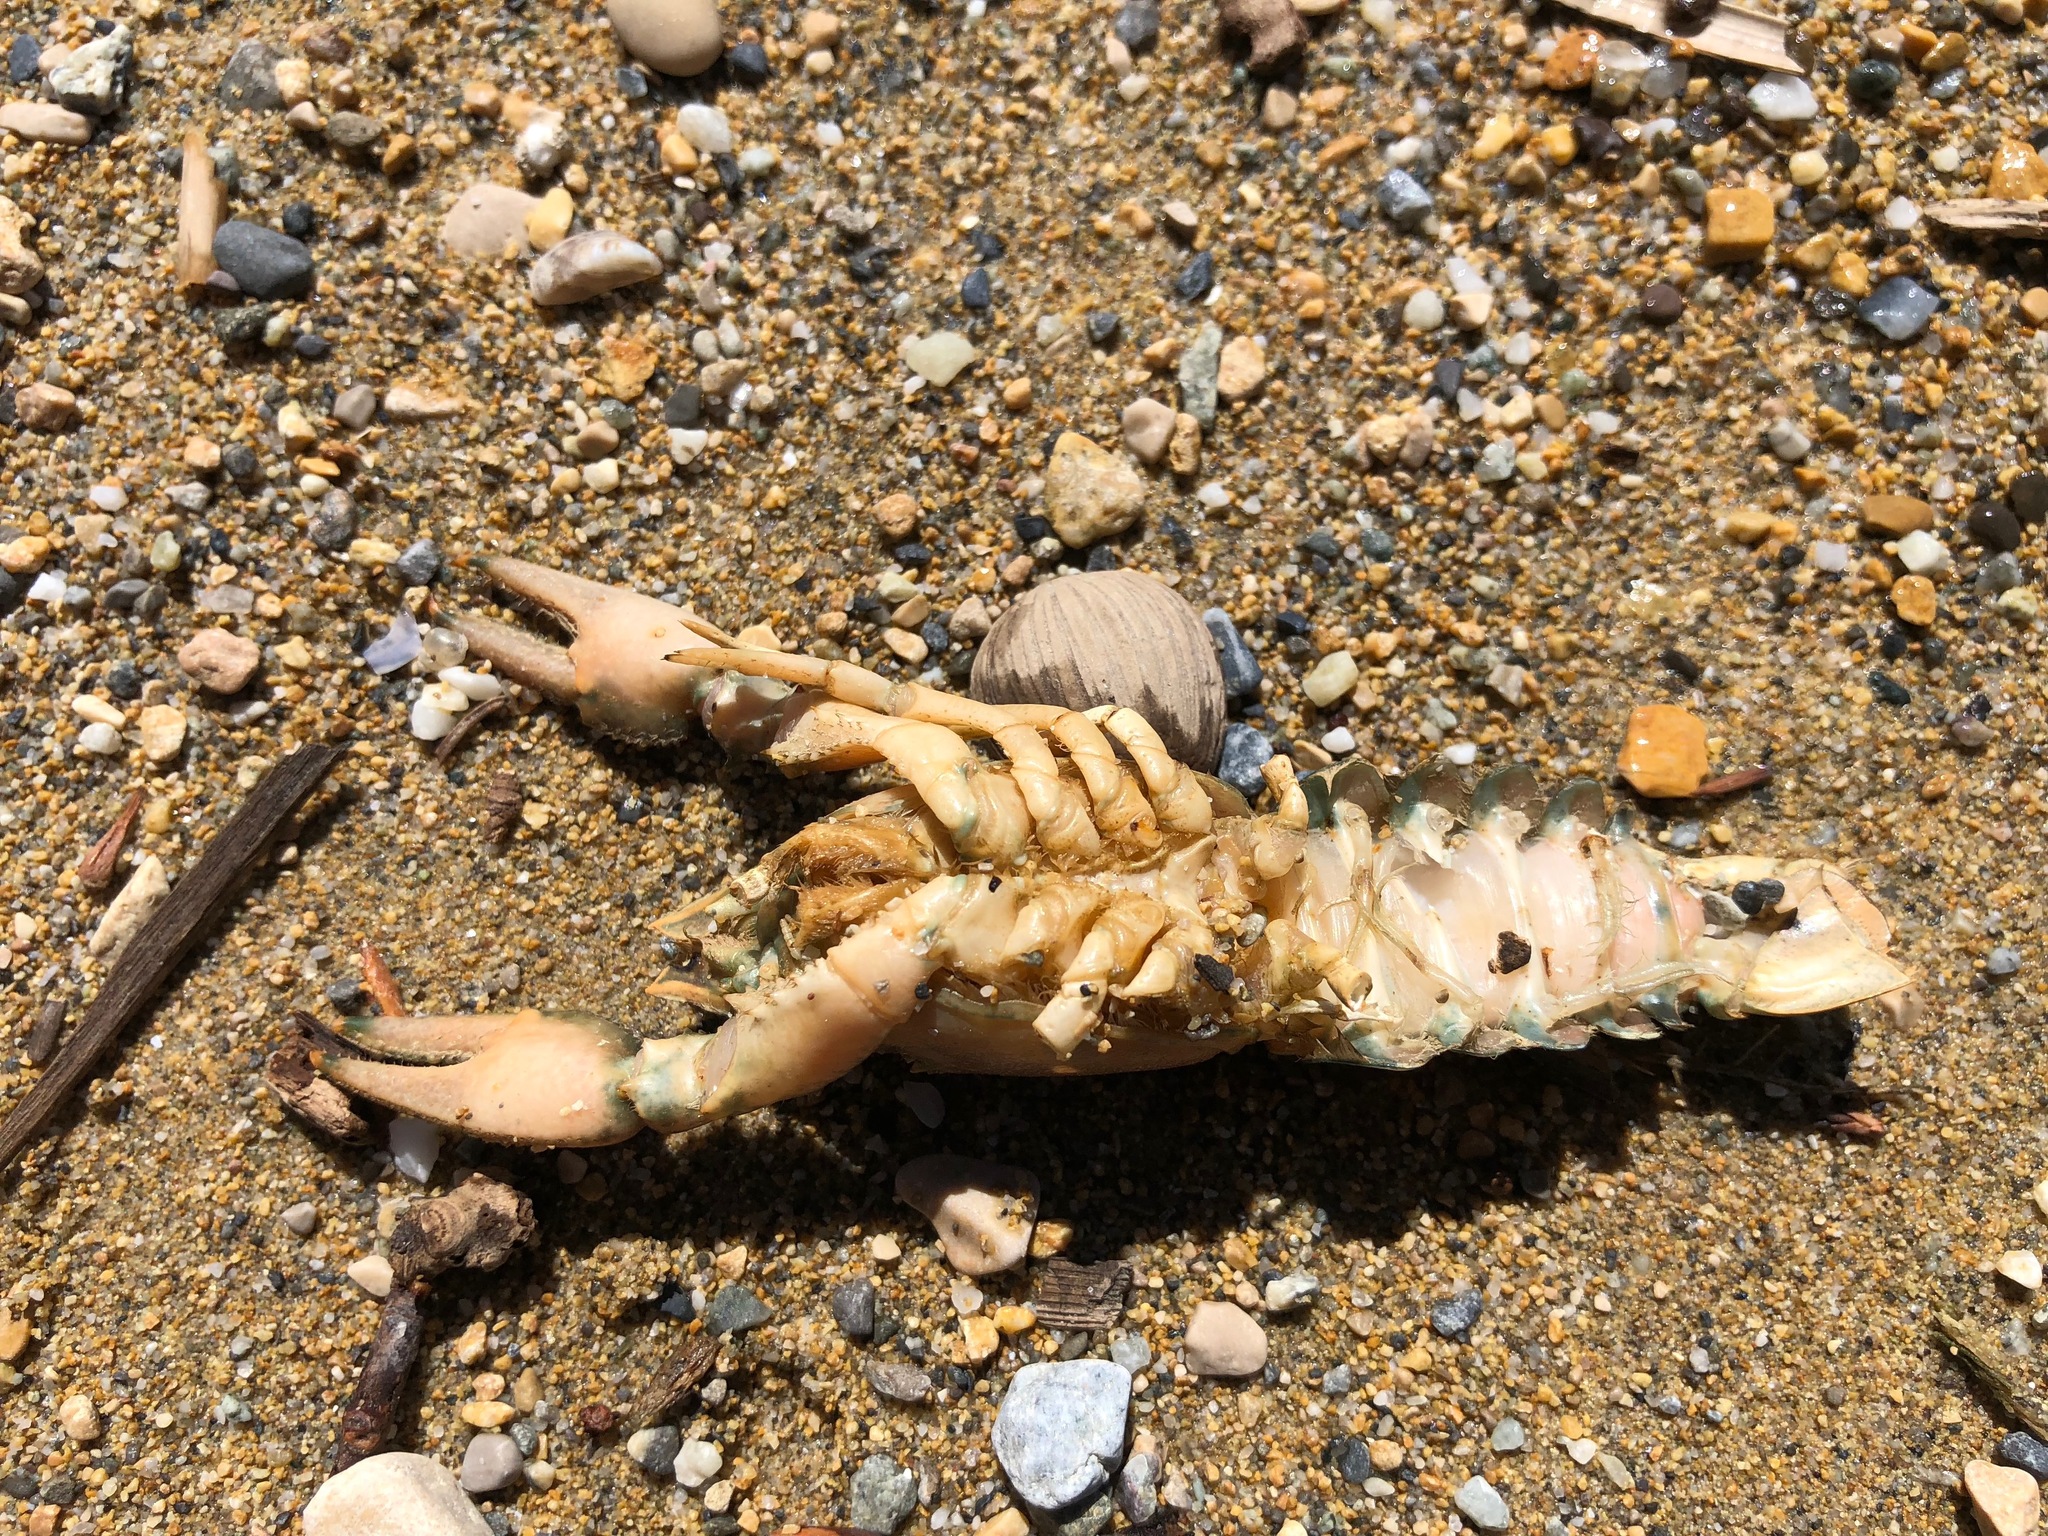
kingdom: Animalia
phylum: Arthropoda
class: Malacostraca
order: Decapoda
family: Cambaridae
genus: Faxonius
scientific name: Faxonius limosus
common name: American crayfish
